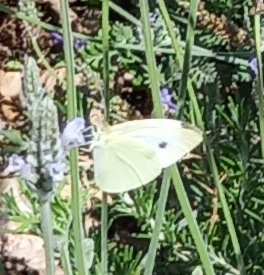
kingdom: Animalia
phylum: Arthropoda
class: Insecta
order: Lepidoptera
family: Pieridae
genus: Pieris
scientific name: Pieris rapae
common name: Small white
